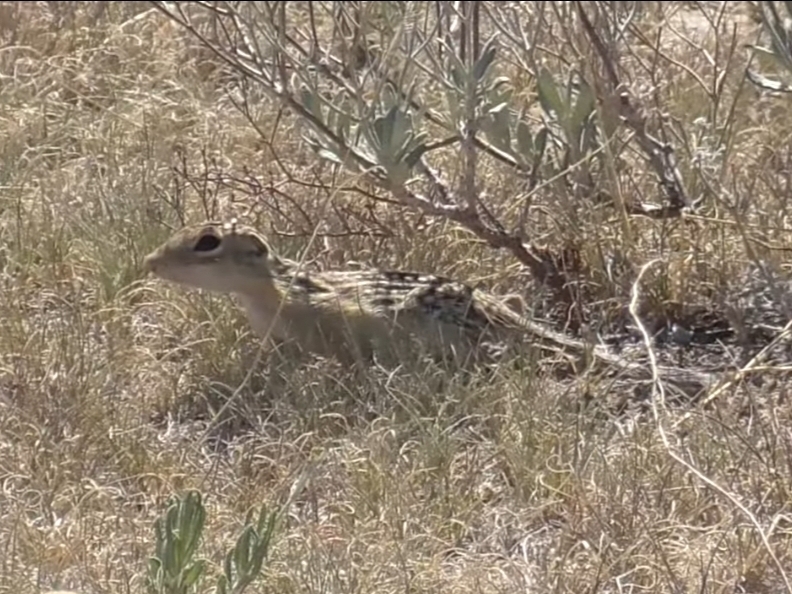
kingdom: Animalia
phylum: Chordata
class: Mammalia
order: Rodentia
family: Sciuridae
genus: Ictidomys
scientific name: Ictidomys tridecemlineatus
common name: Thirteen-lined ground squirrel
